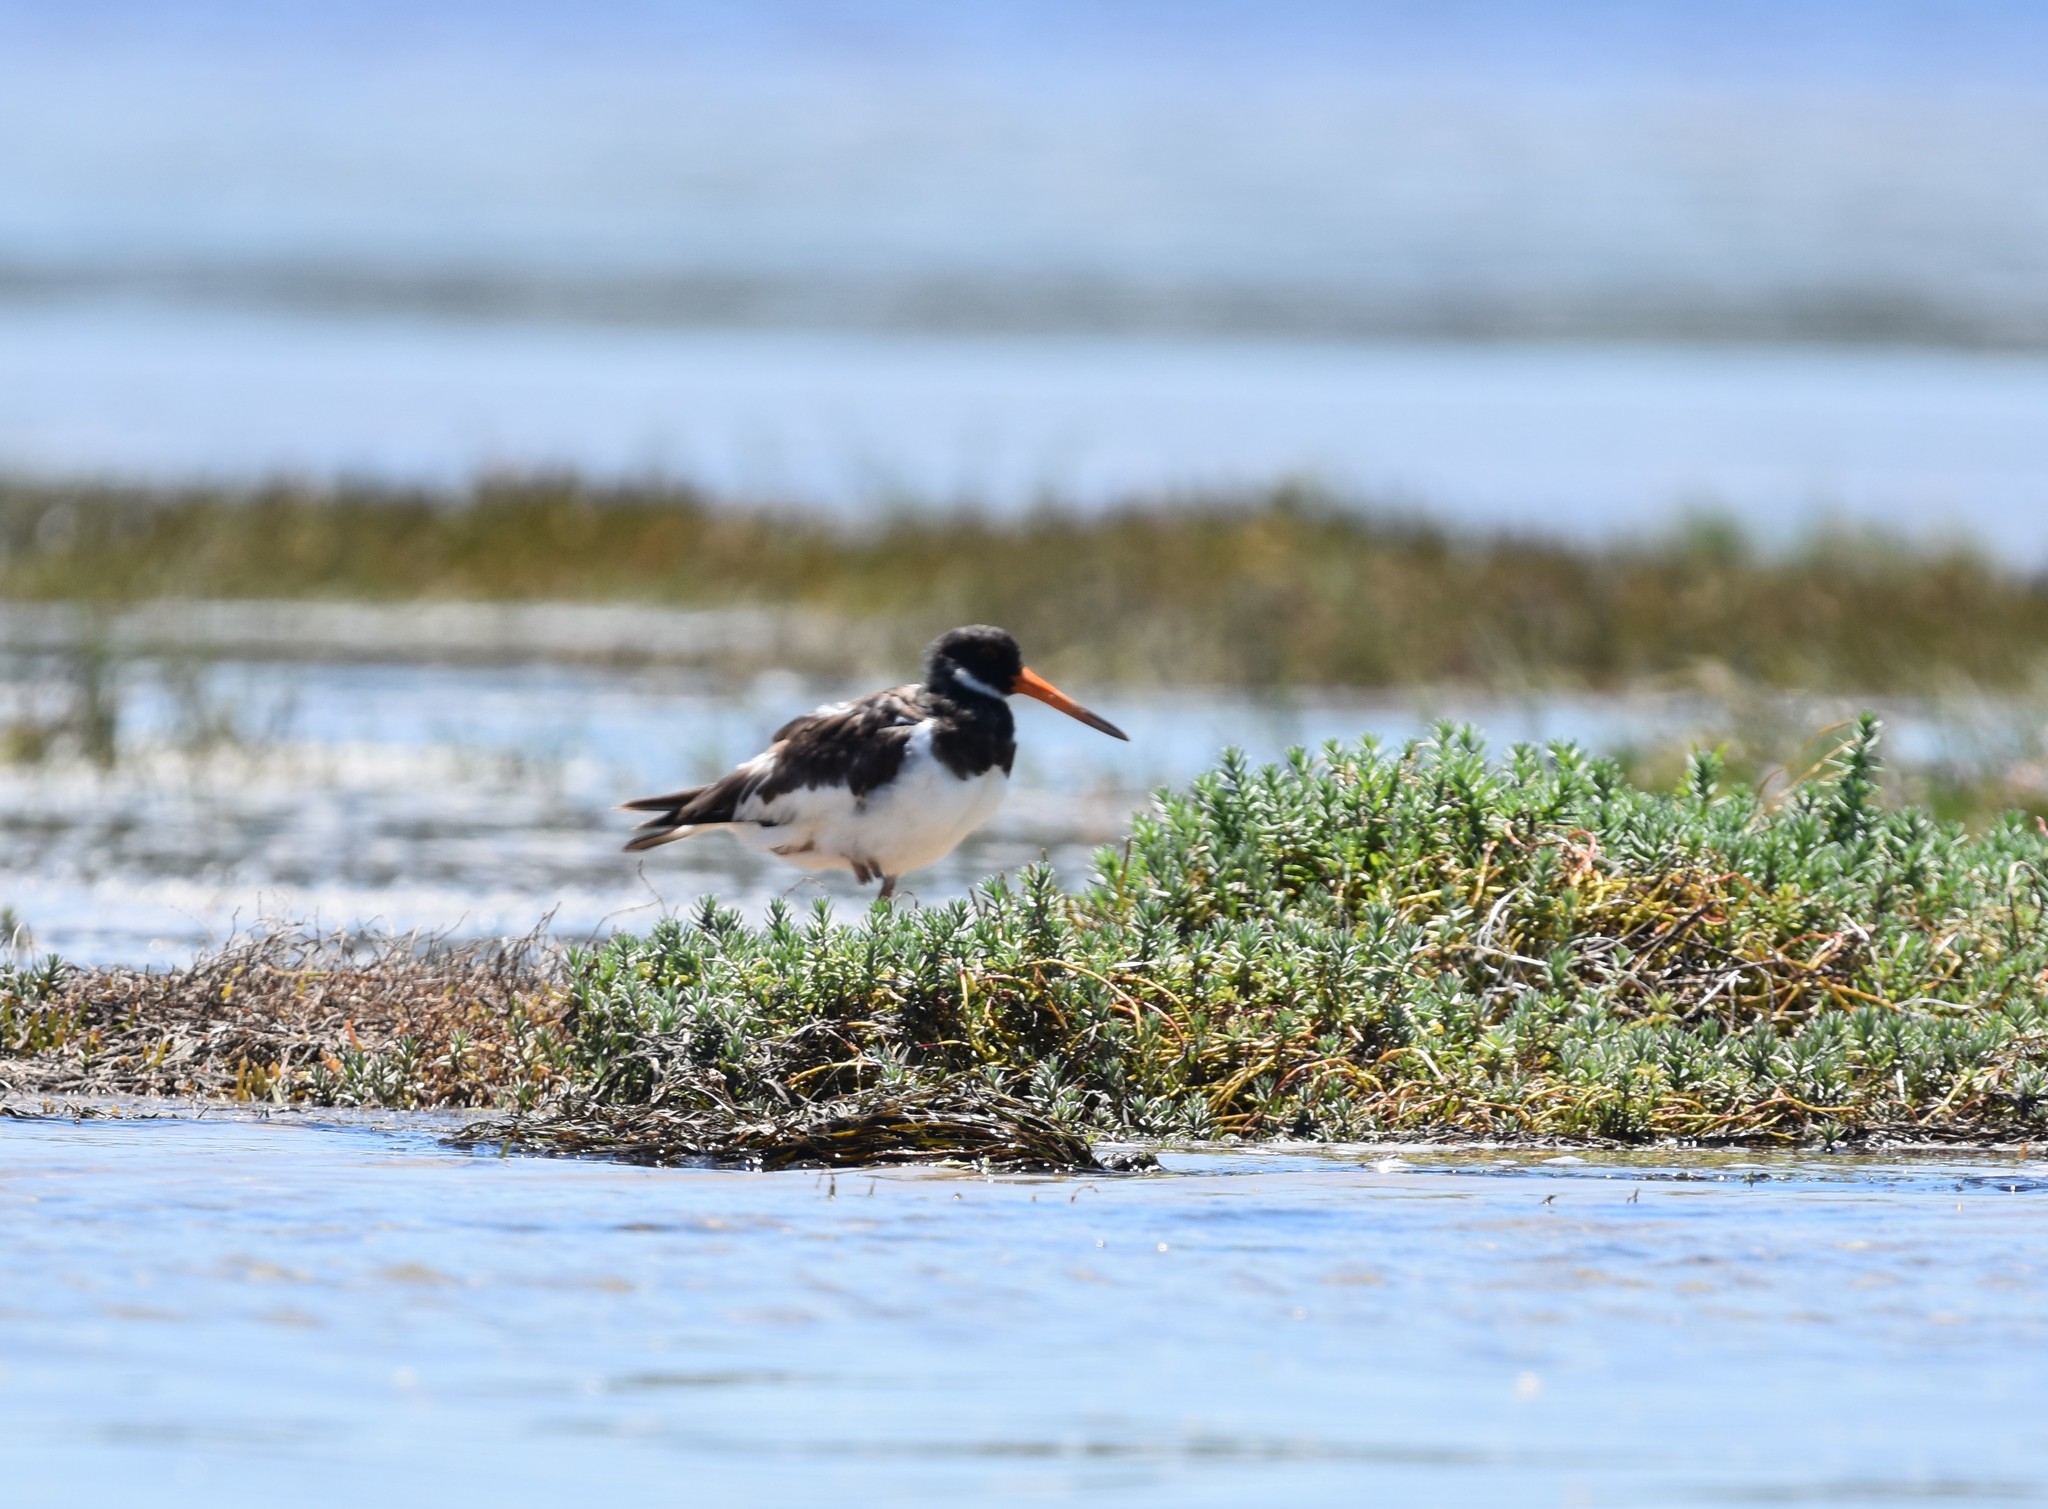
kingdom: Animalia
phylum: Chordata
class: Aves
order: Charadriiformes
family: Haematopodidae
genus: Haematopus
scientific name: Haematopus ostralegus
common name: Eurasian oystercatcher
